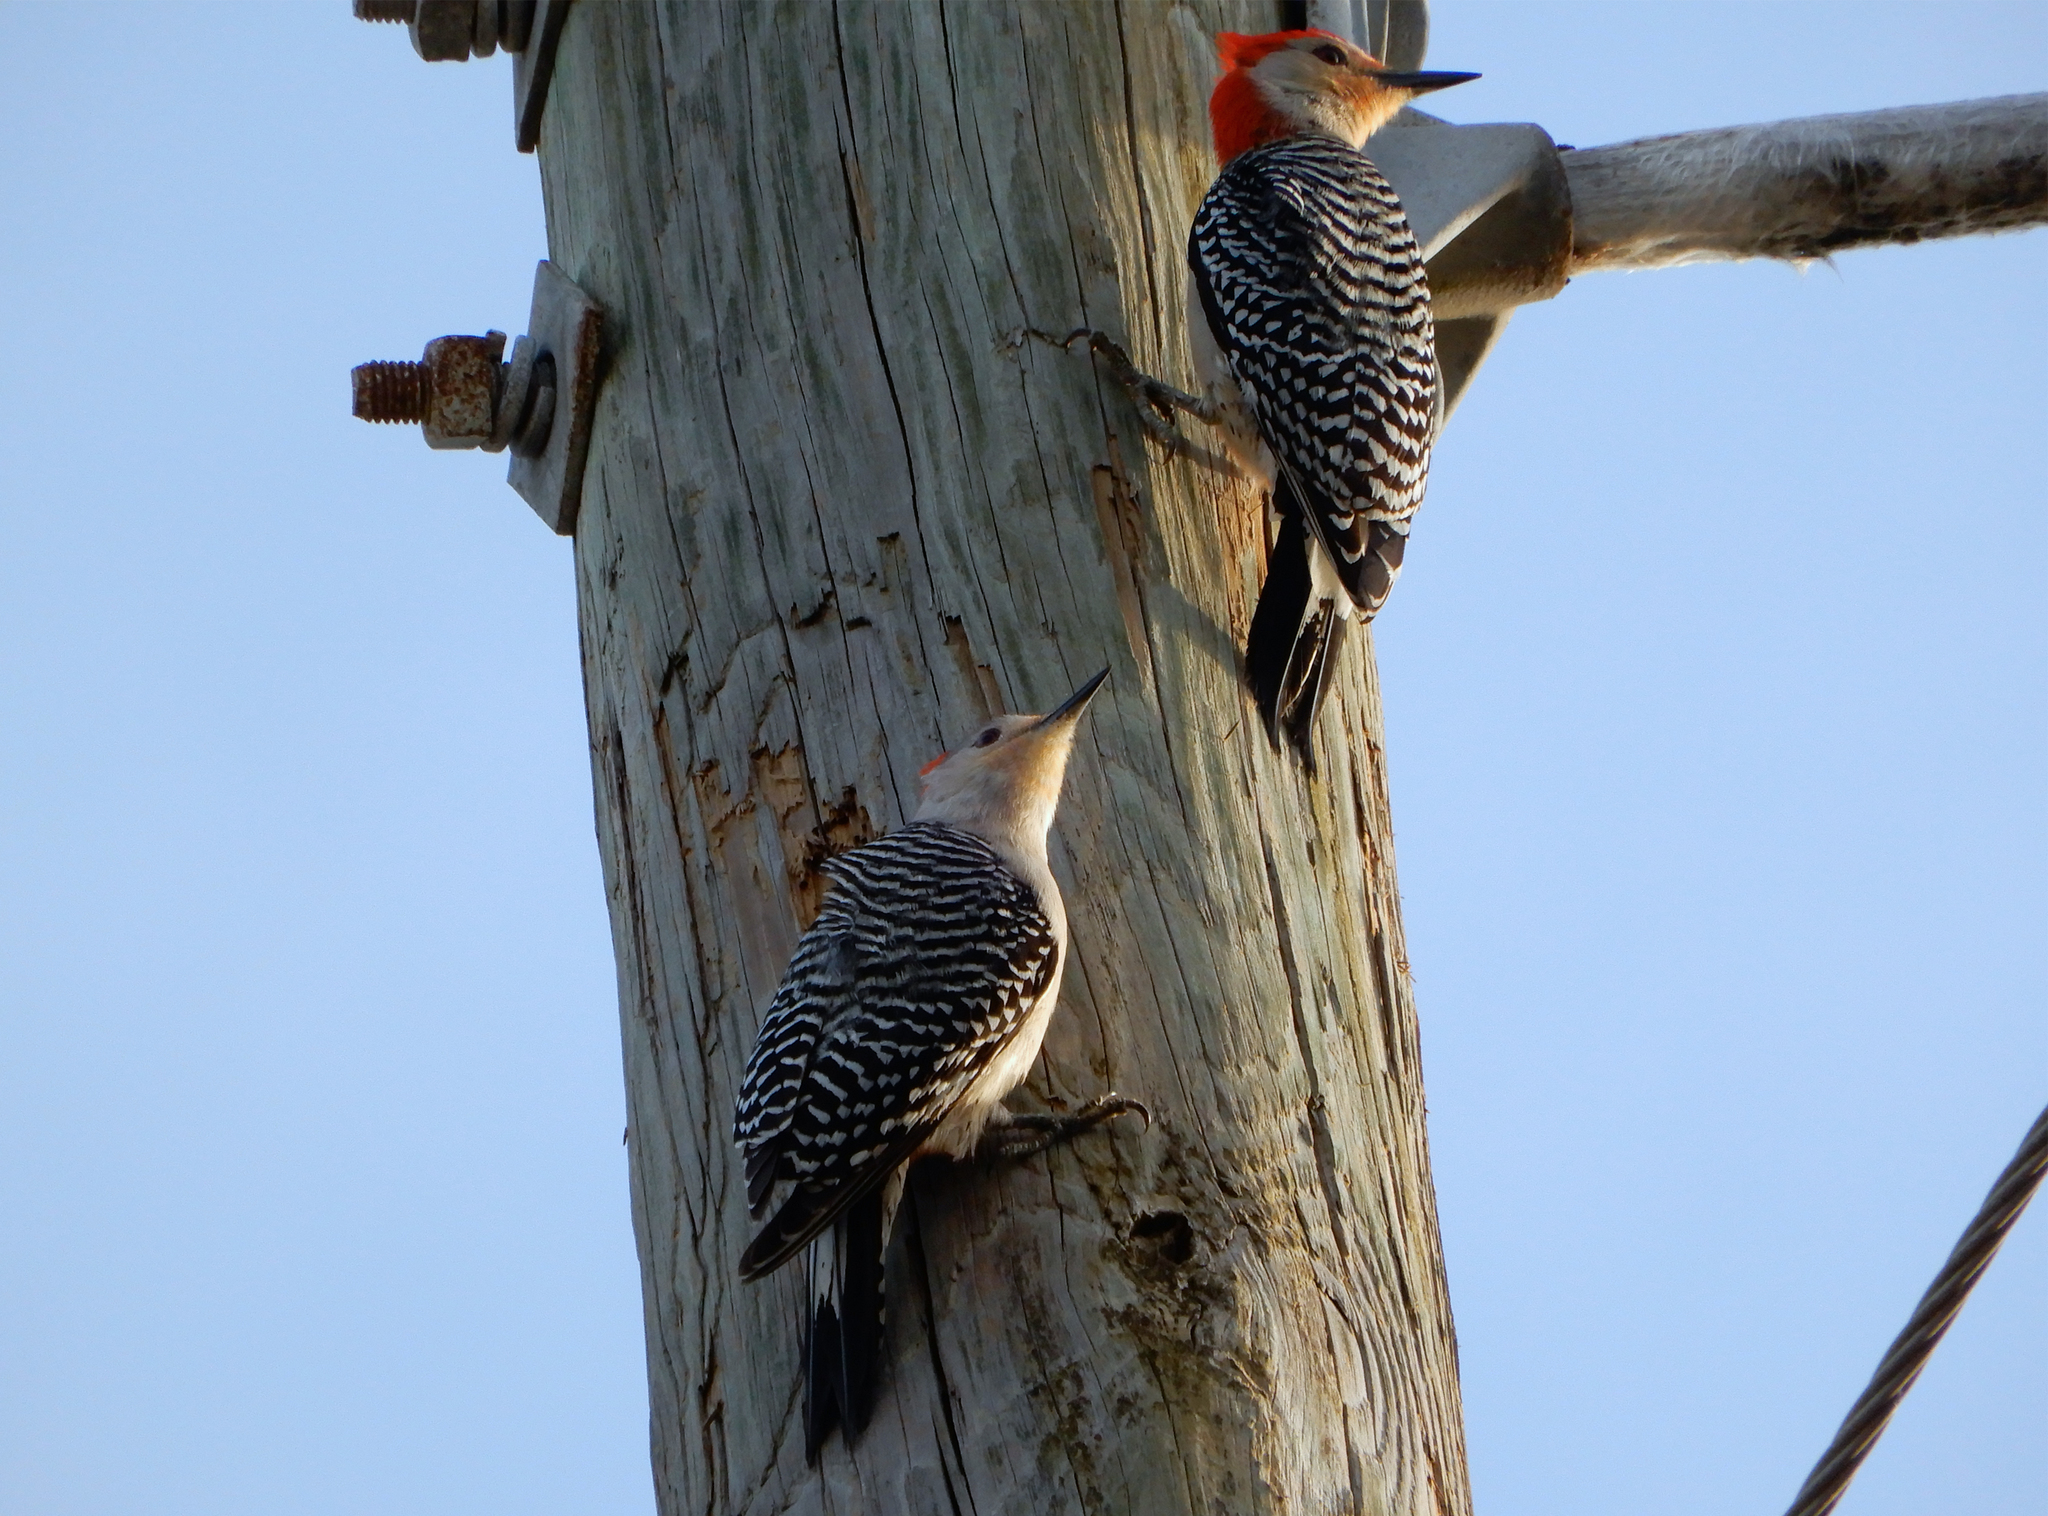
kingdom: Animalia
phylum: Chordata
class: Aves
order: Piciformes
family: Picidae
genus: Melanerpes
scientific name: Melanerpes carolinus
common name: Red-bellied woodpecker
